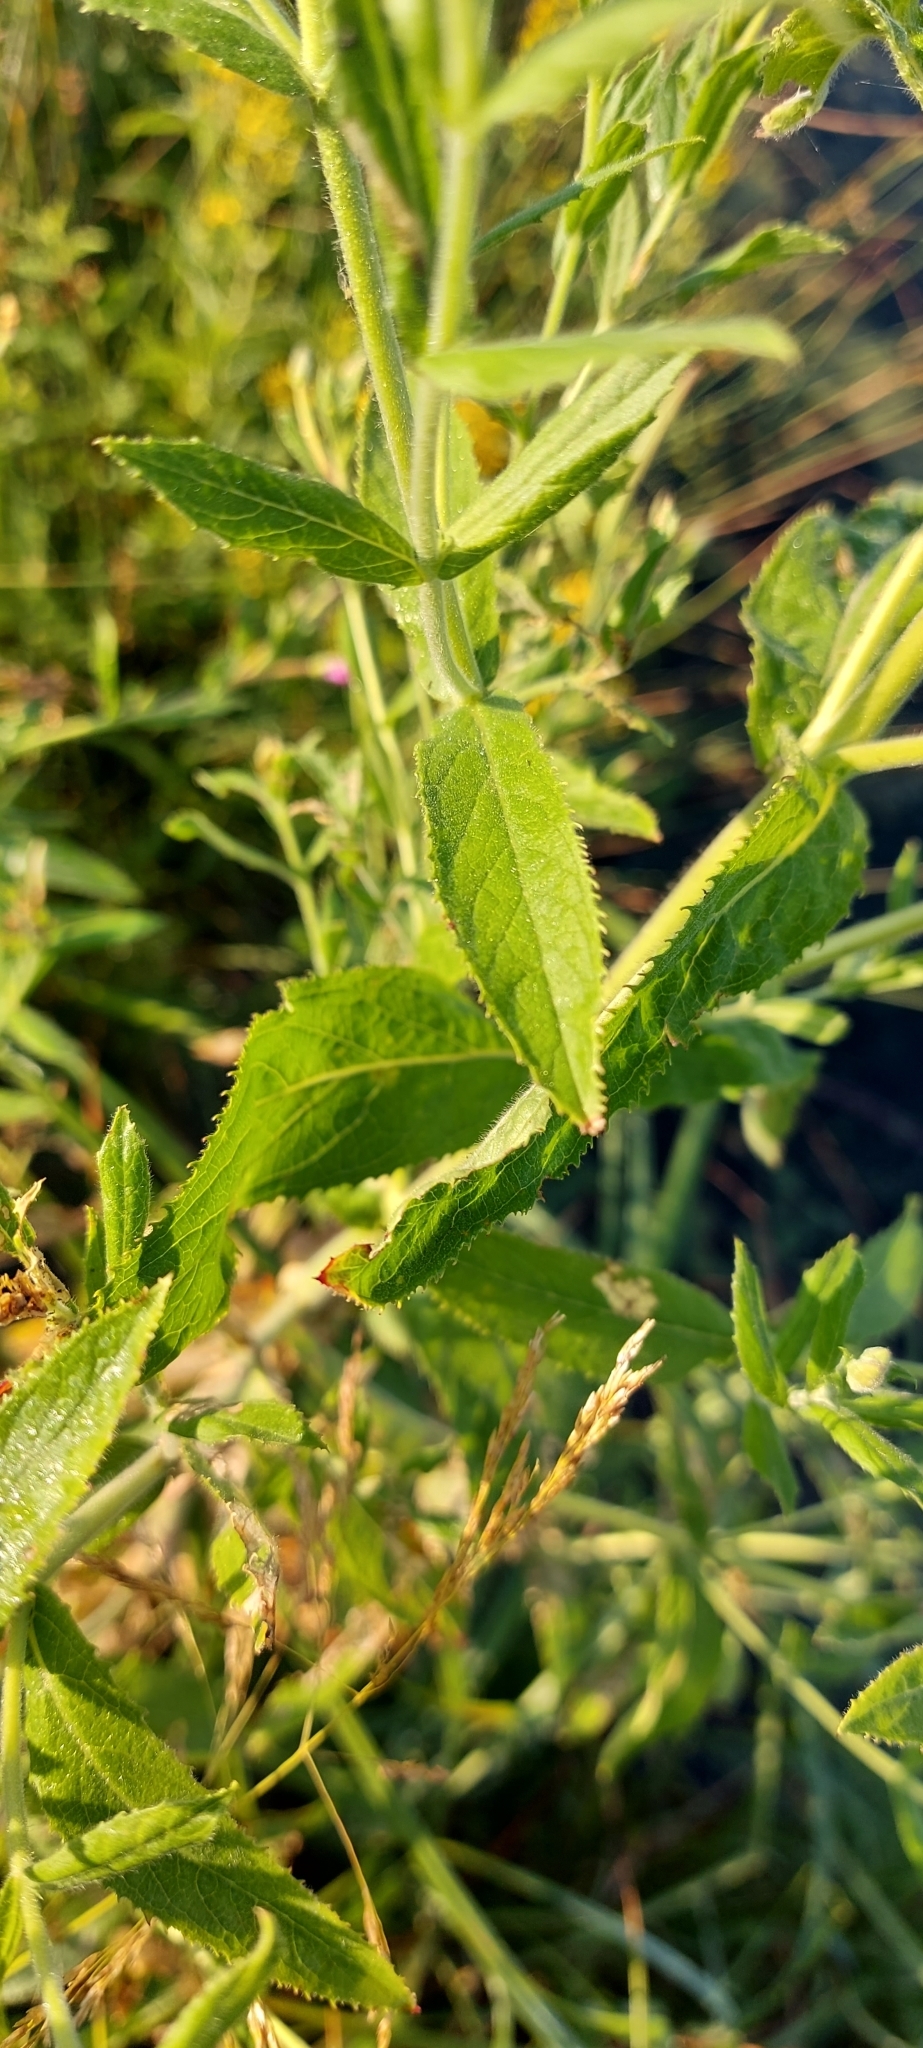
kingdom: Plantae
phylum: Tracheophyta
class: Magnoliopsida
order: Myrtales
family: Onagraceae
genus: Epilobium
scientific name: Epilobium hirsutum
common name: Great willowherb
